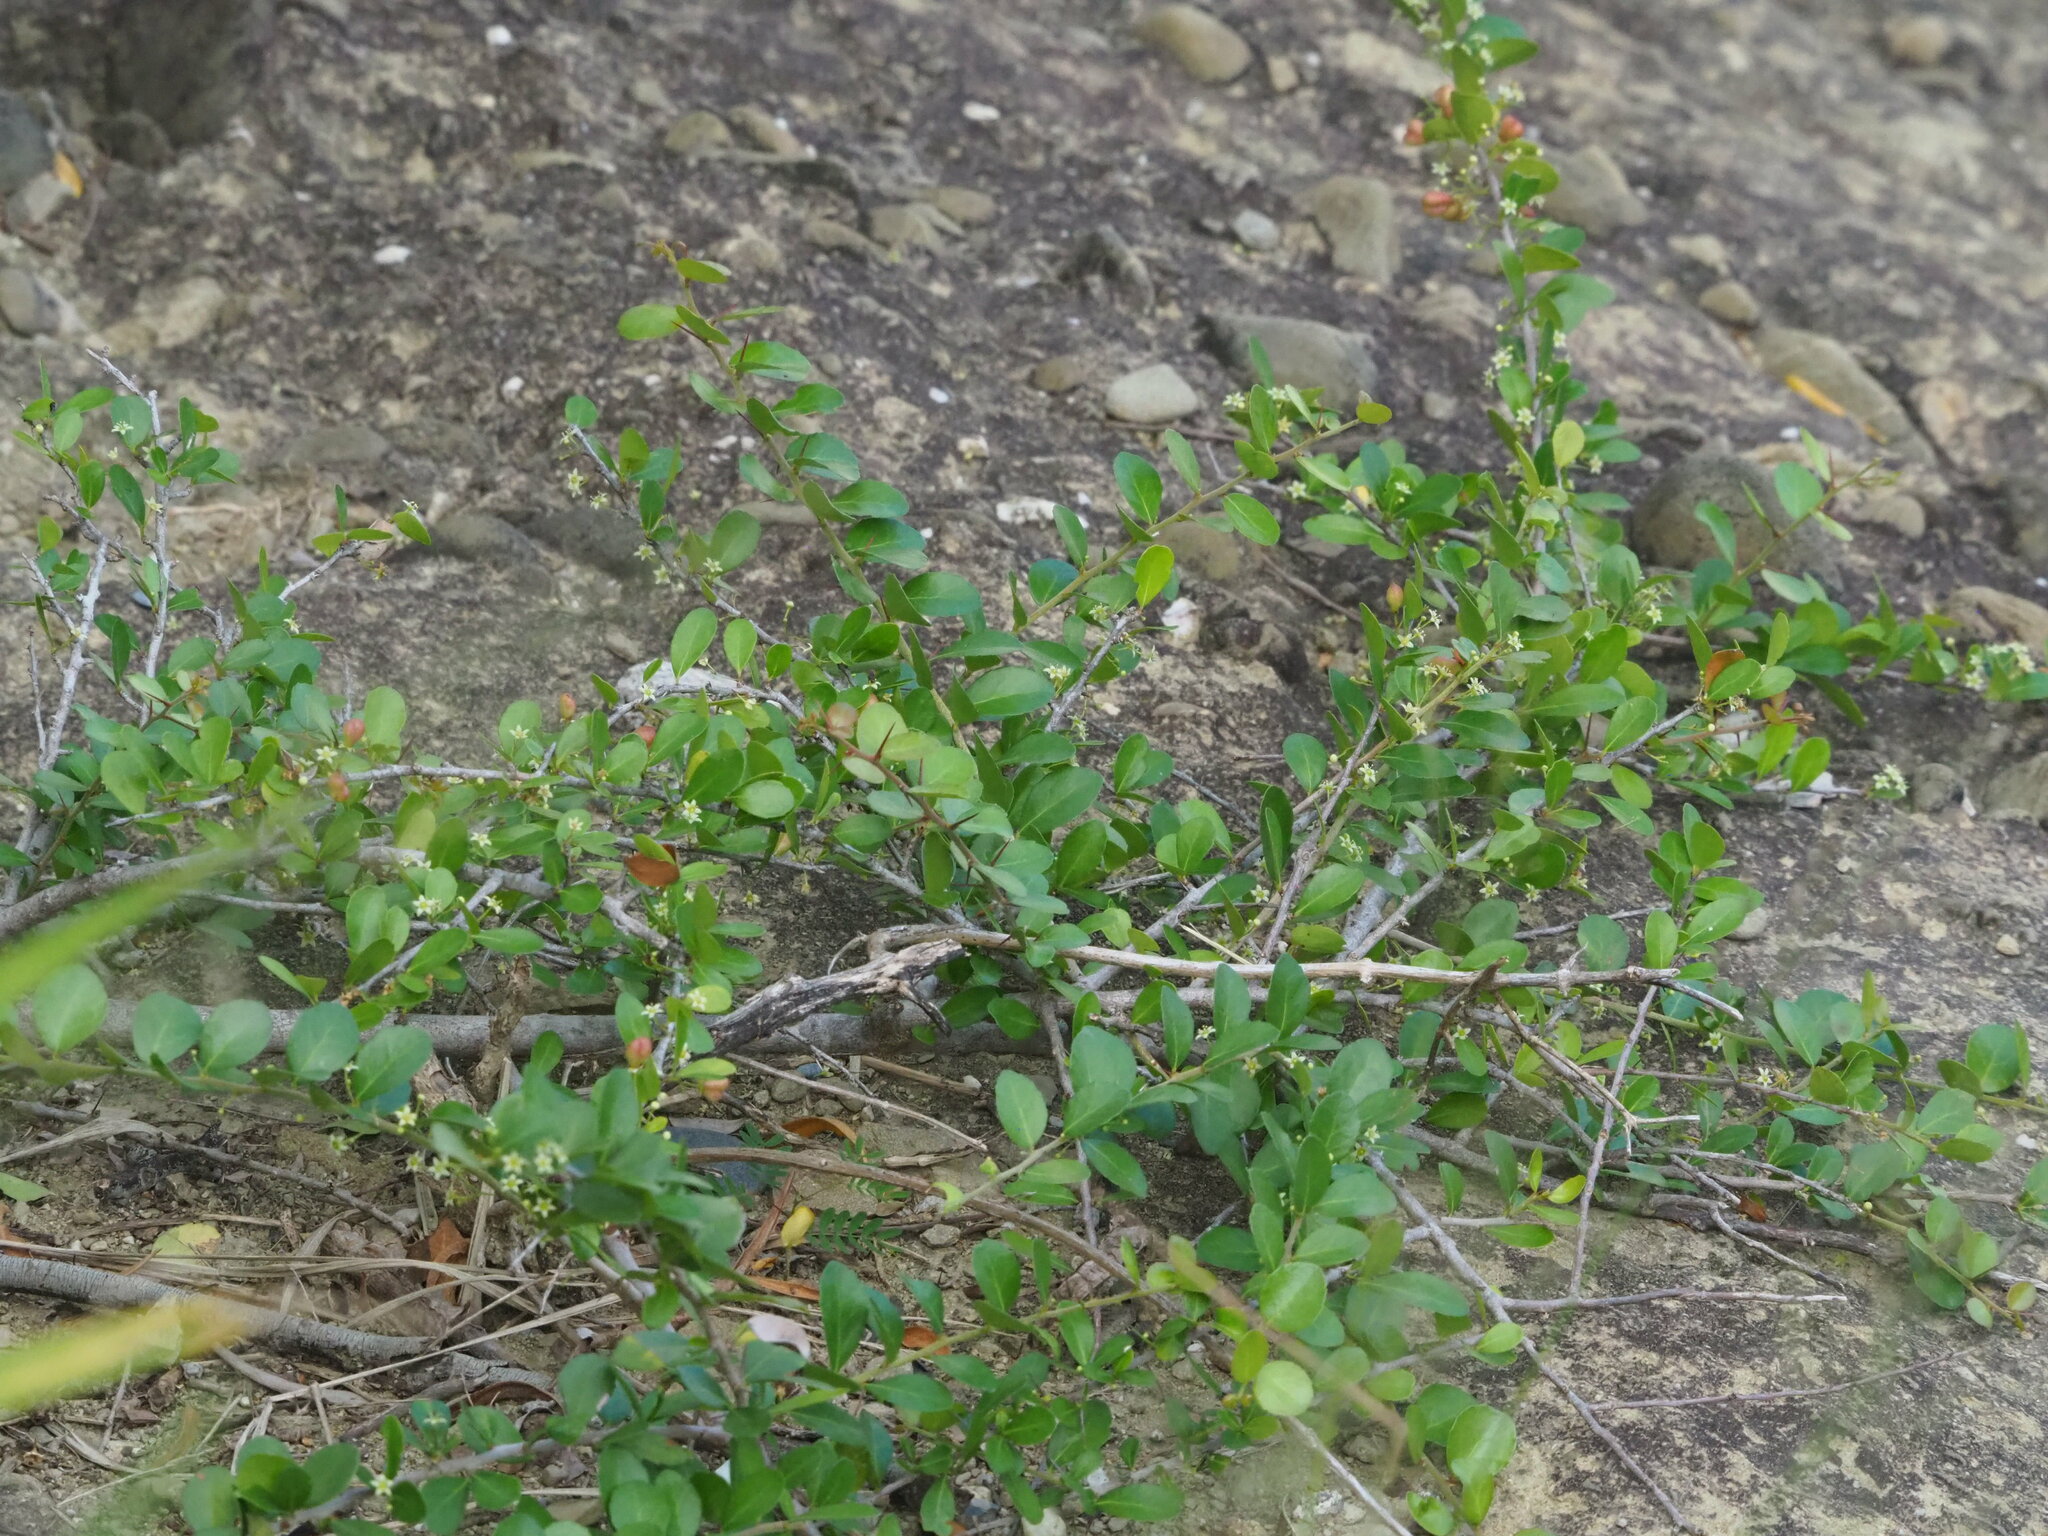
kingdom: Plantae
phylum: Tracheophyta
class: Magnoliopsida
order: Celastrales
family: Celastraceae
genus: Gymnosporia
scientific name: Gymnosporia diversifolia
